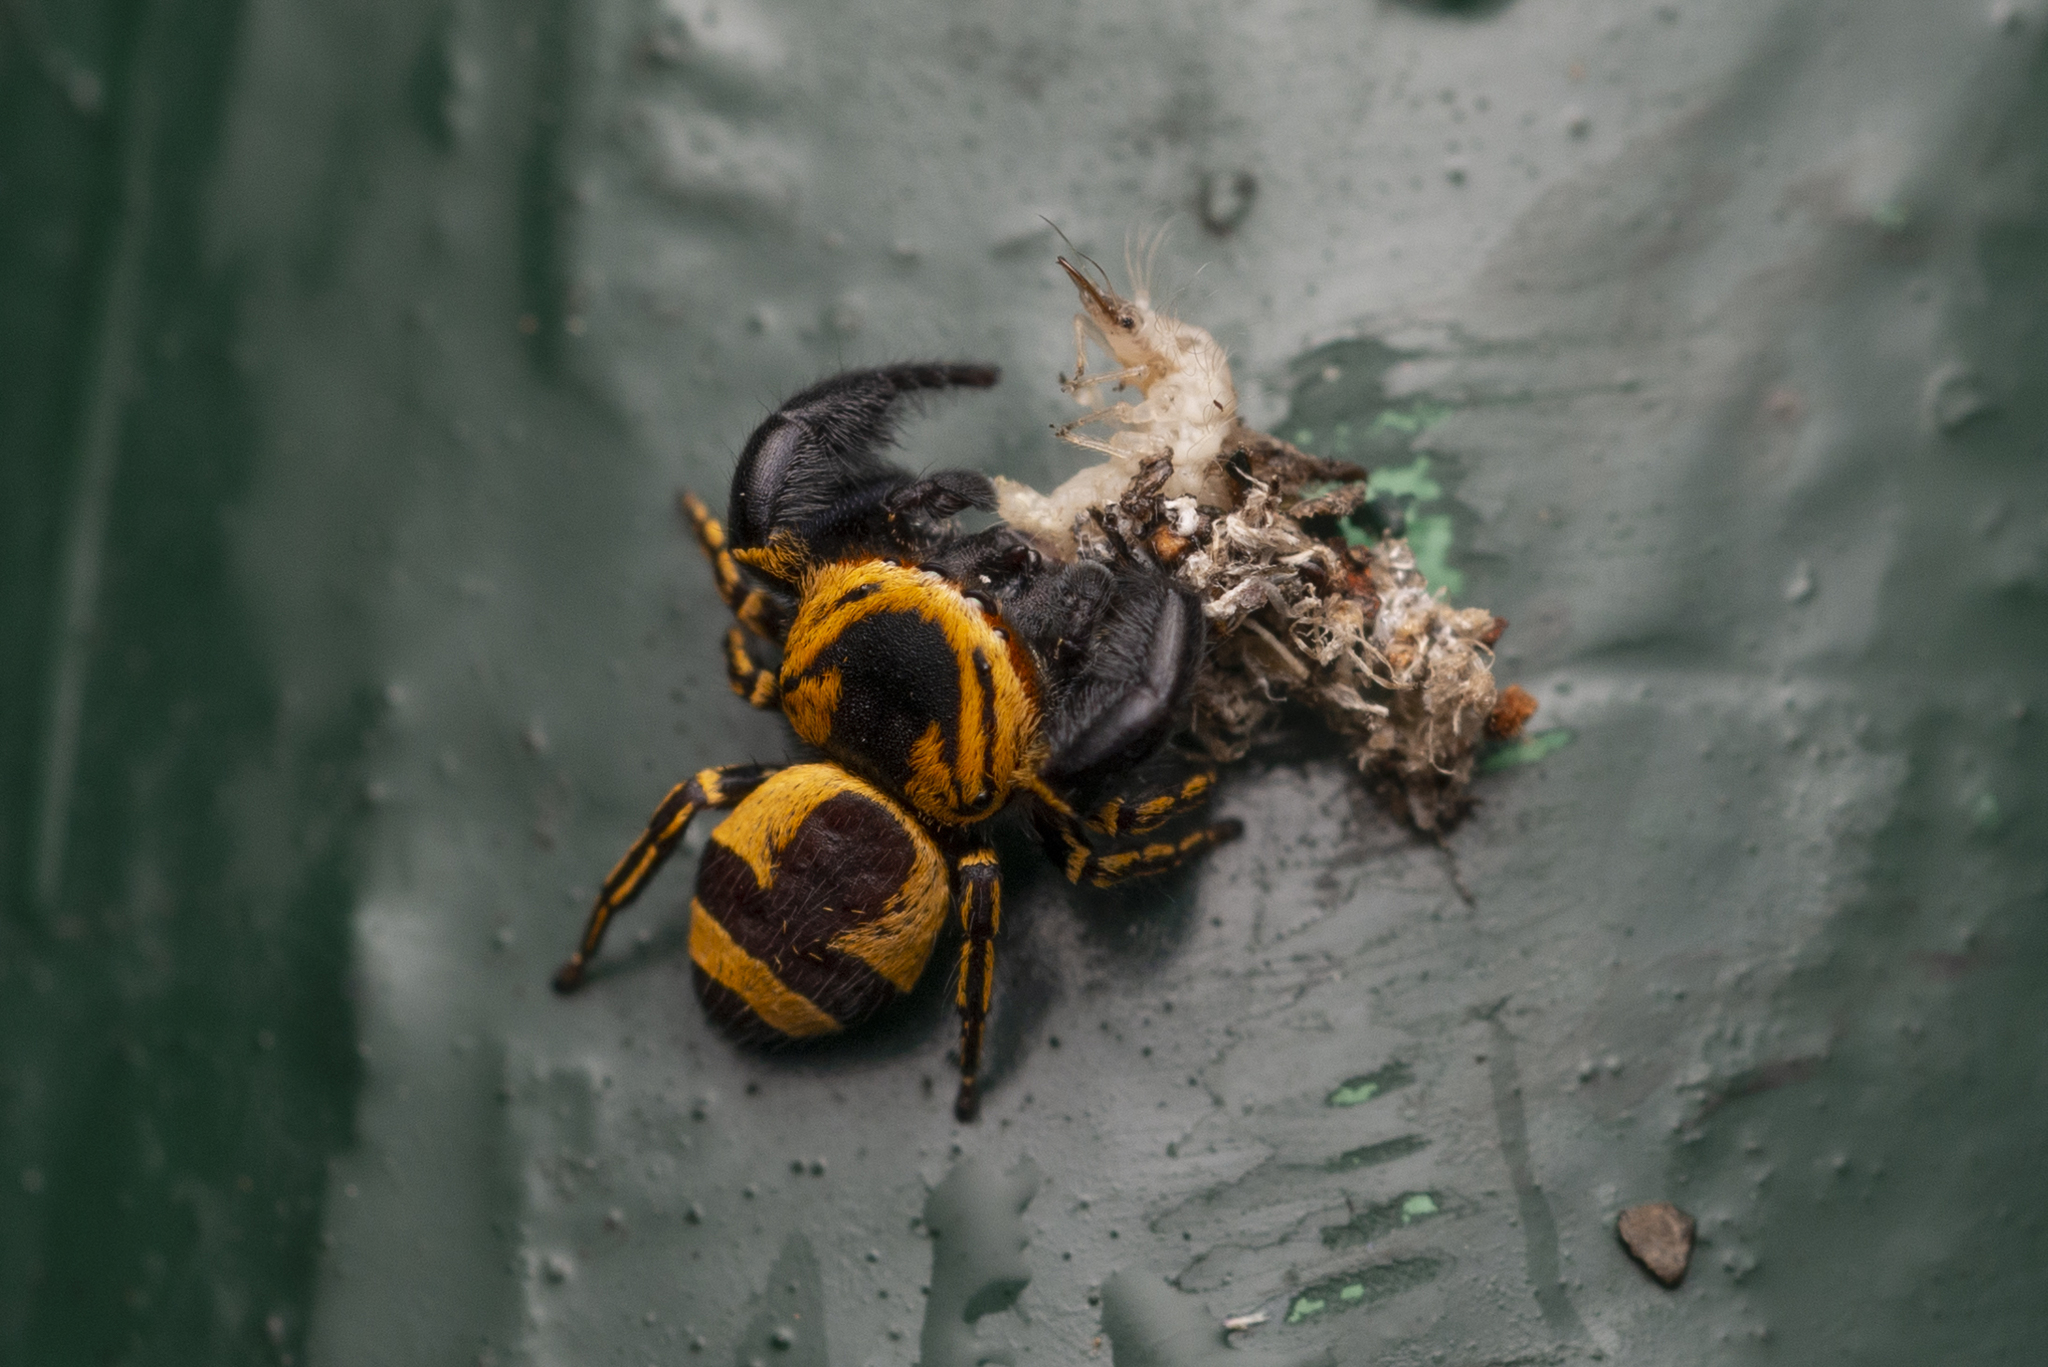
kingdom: Animalia
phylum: Arthropoda
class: Arachnida
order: Araneae
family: Salticidae
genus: Rhene
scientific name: Rhene flavicomans
